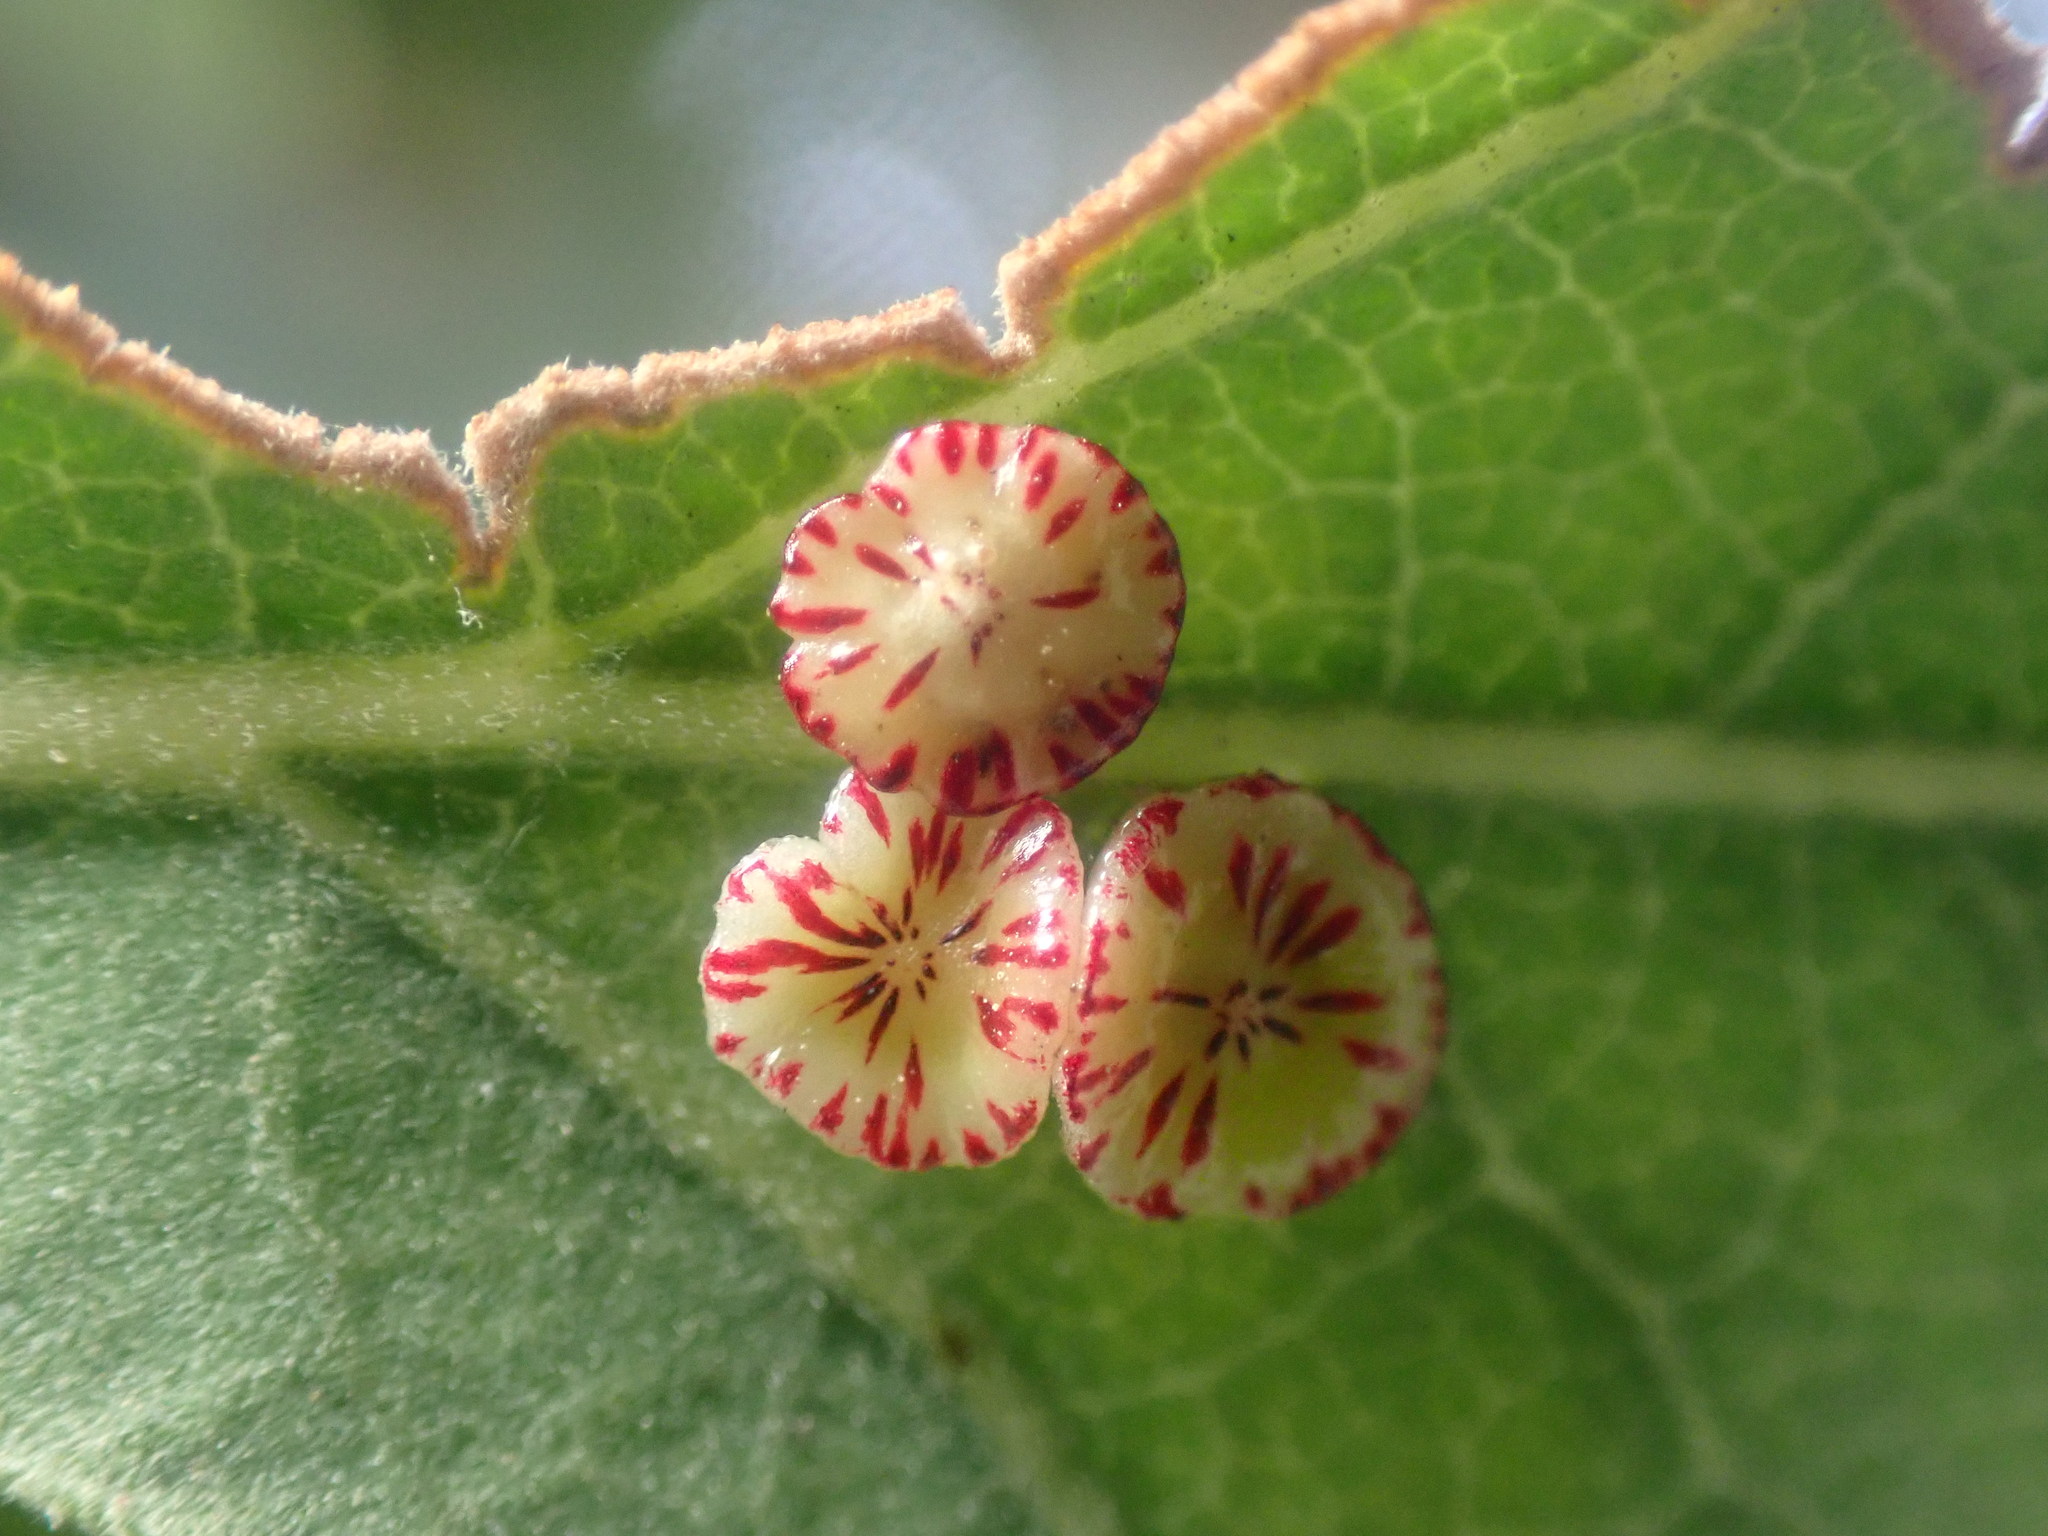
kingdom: Animalia
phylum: Arthropoda
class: Insecta
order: Hymenoptera
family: Cynipidae
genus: Andricus
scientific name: Andricus
